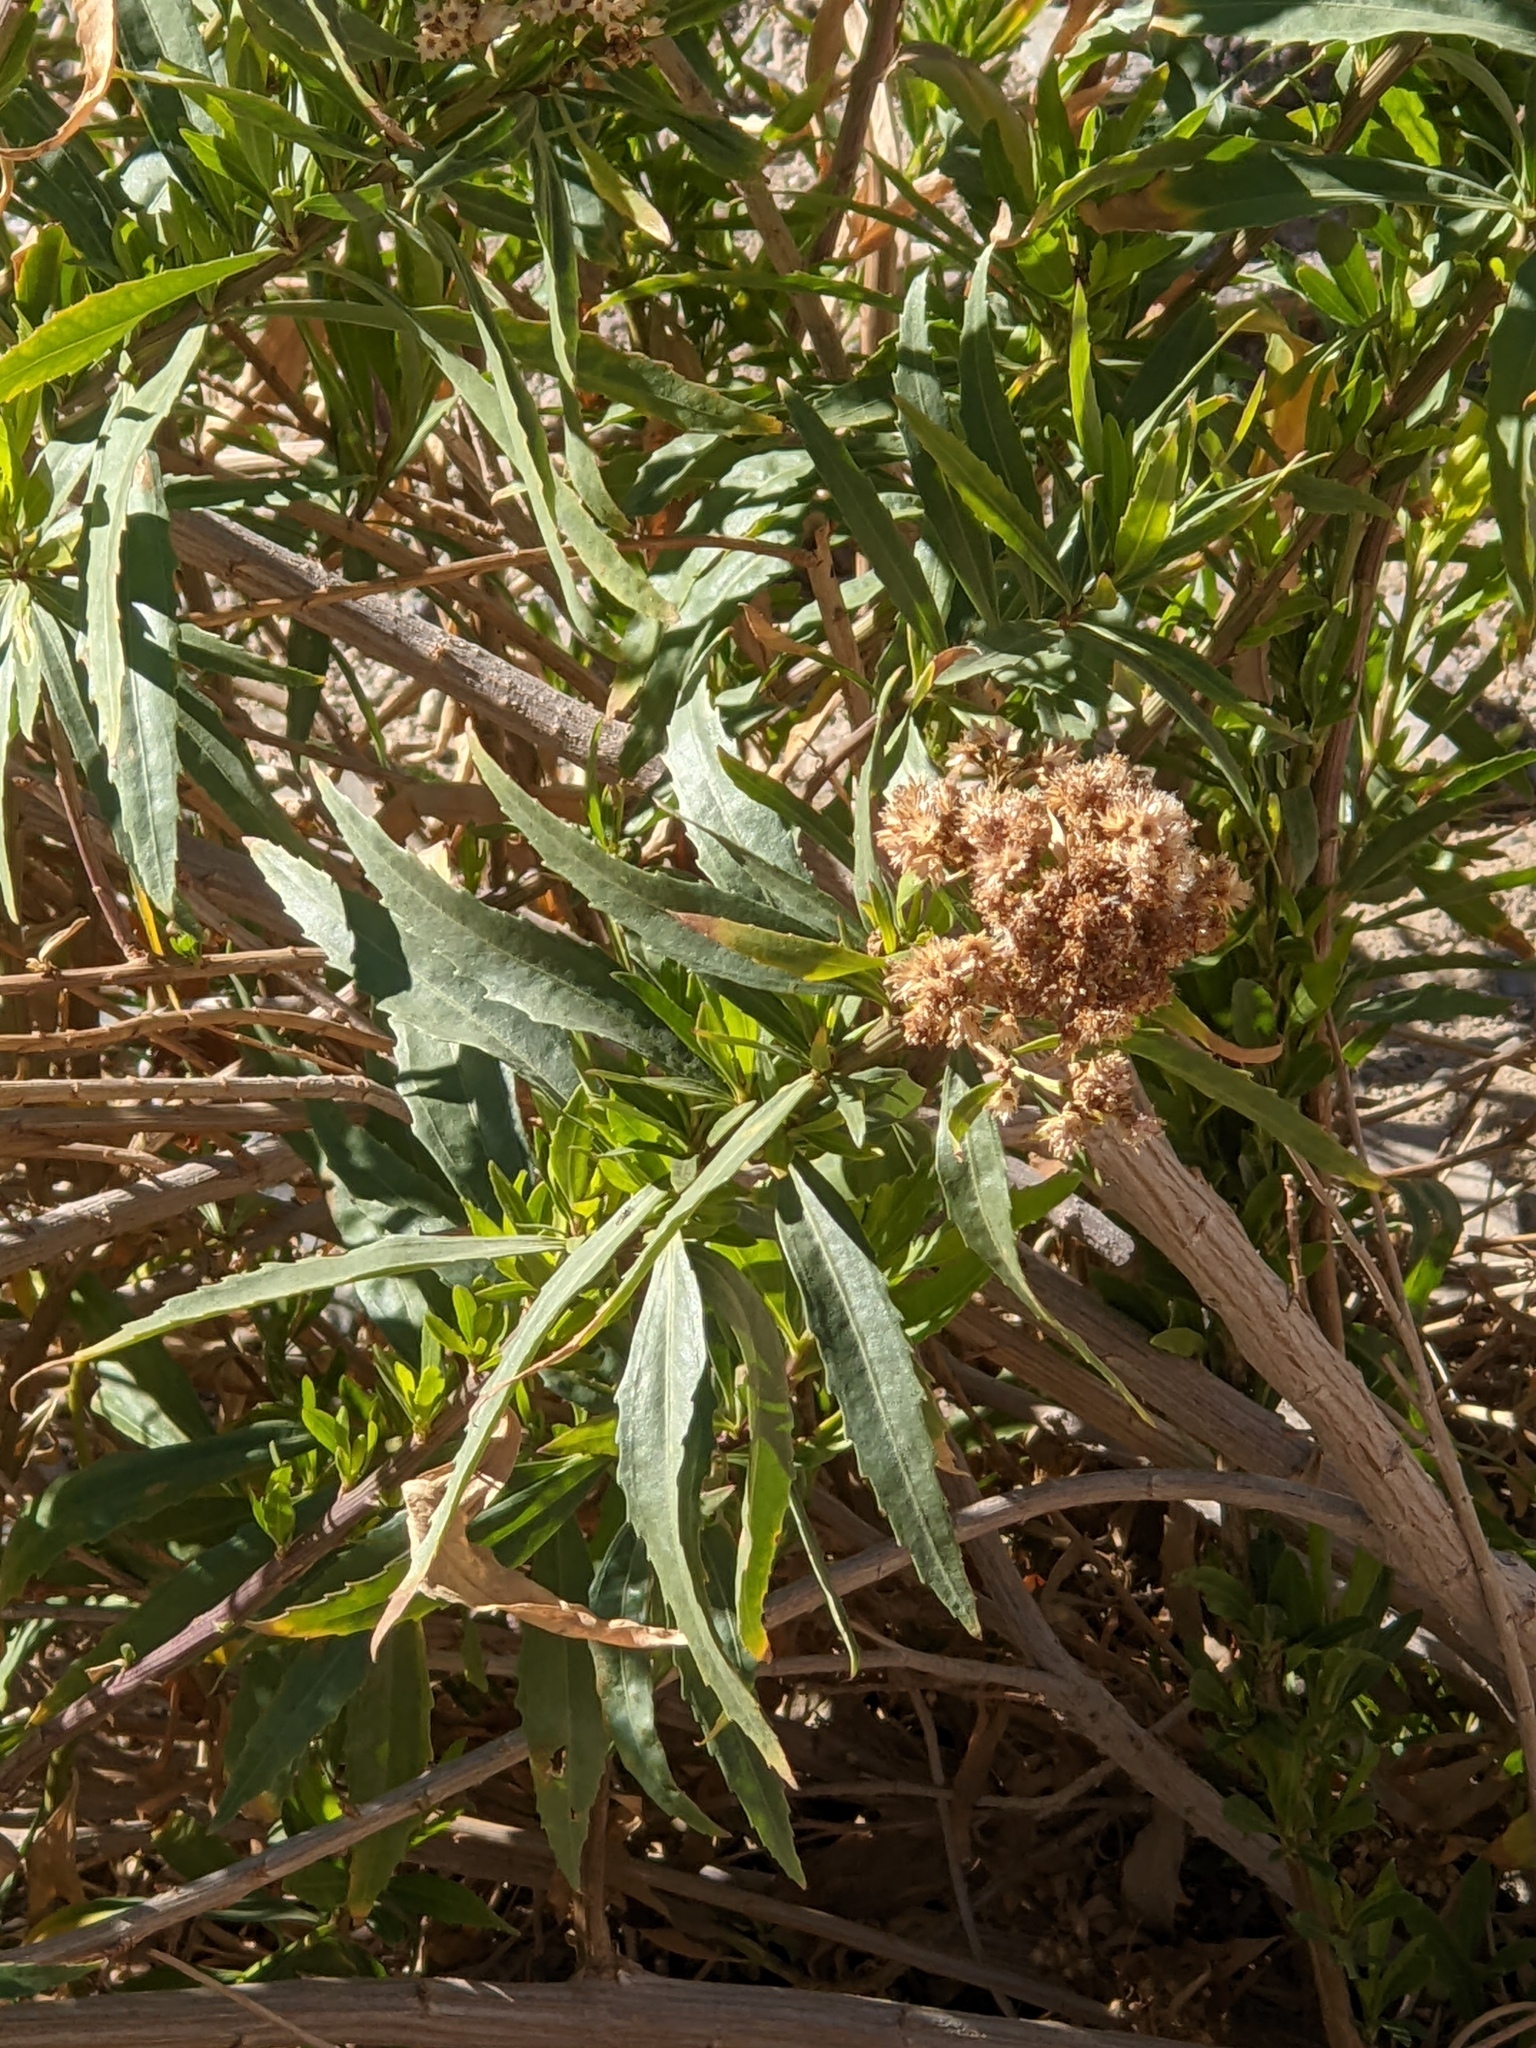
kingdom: Plantae
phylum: Tracheophyta
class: Magnoliopsida
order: Asterales
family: Asteraceae
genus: Baccharis
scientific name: Baccharis salicifolia
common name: Sticky baccharis
